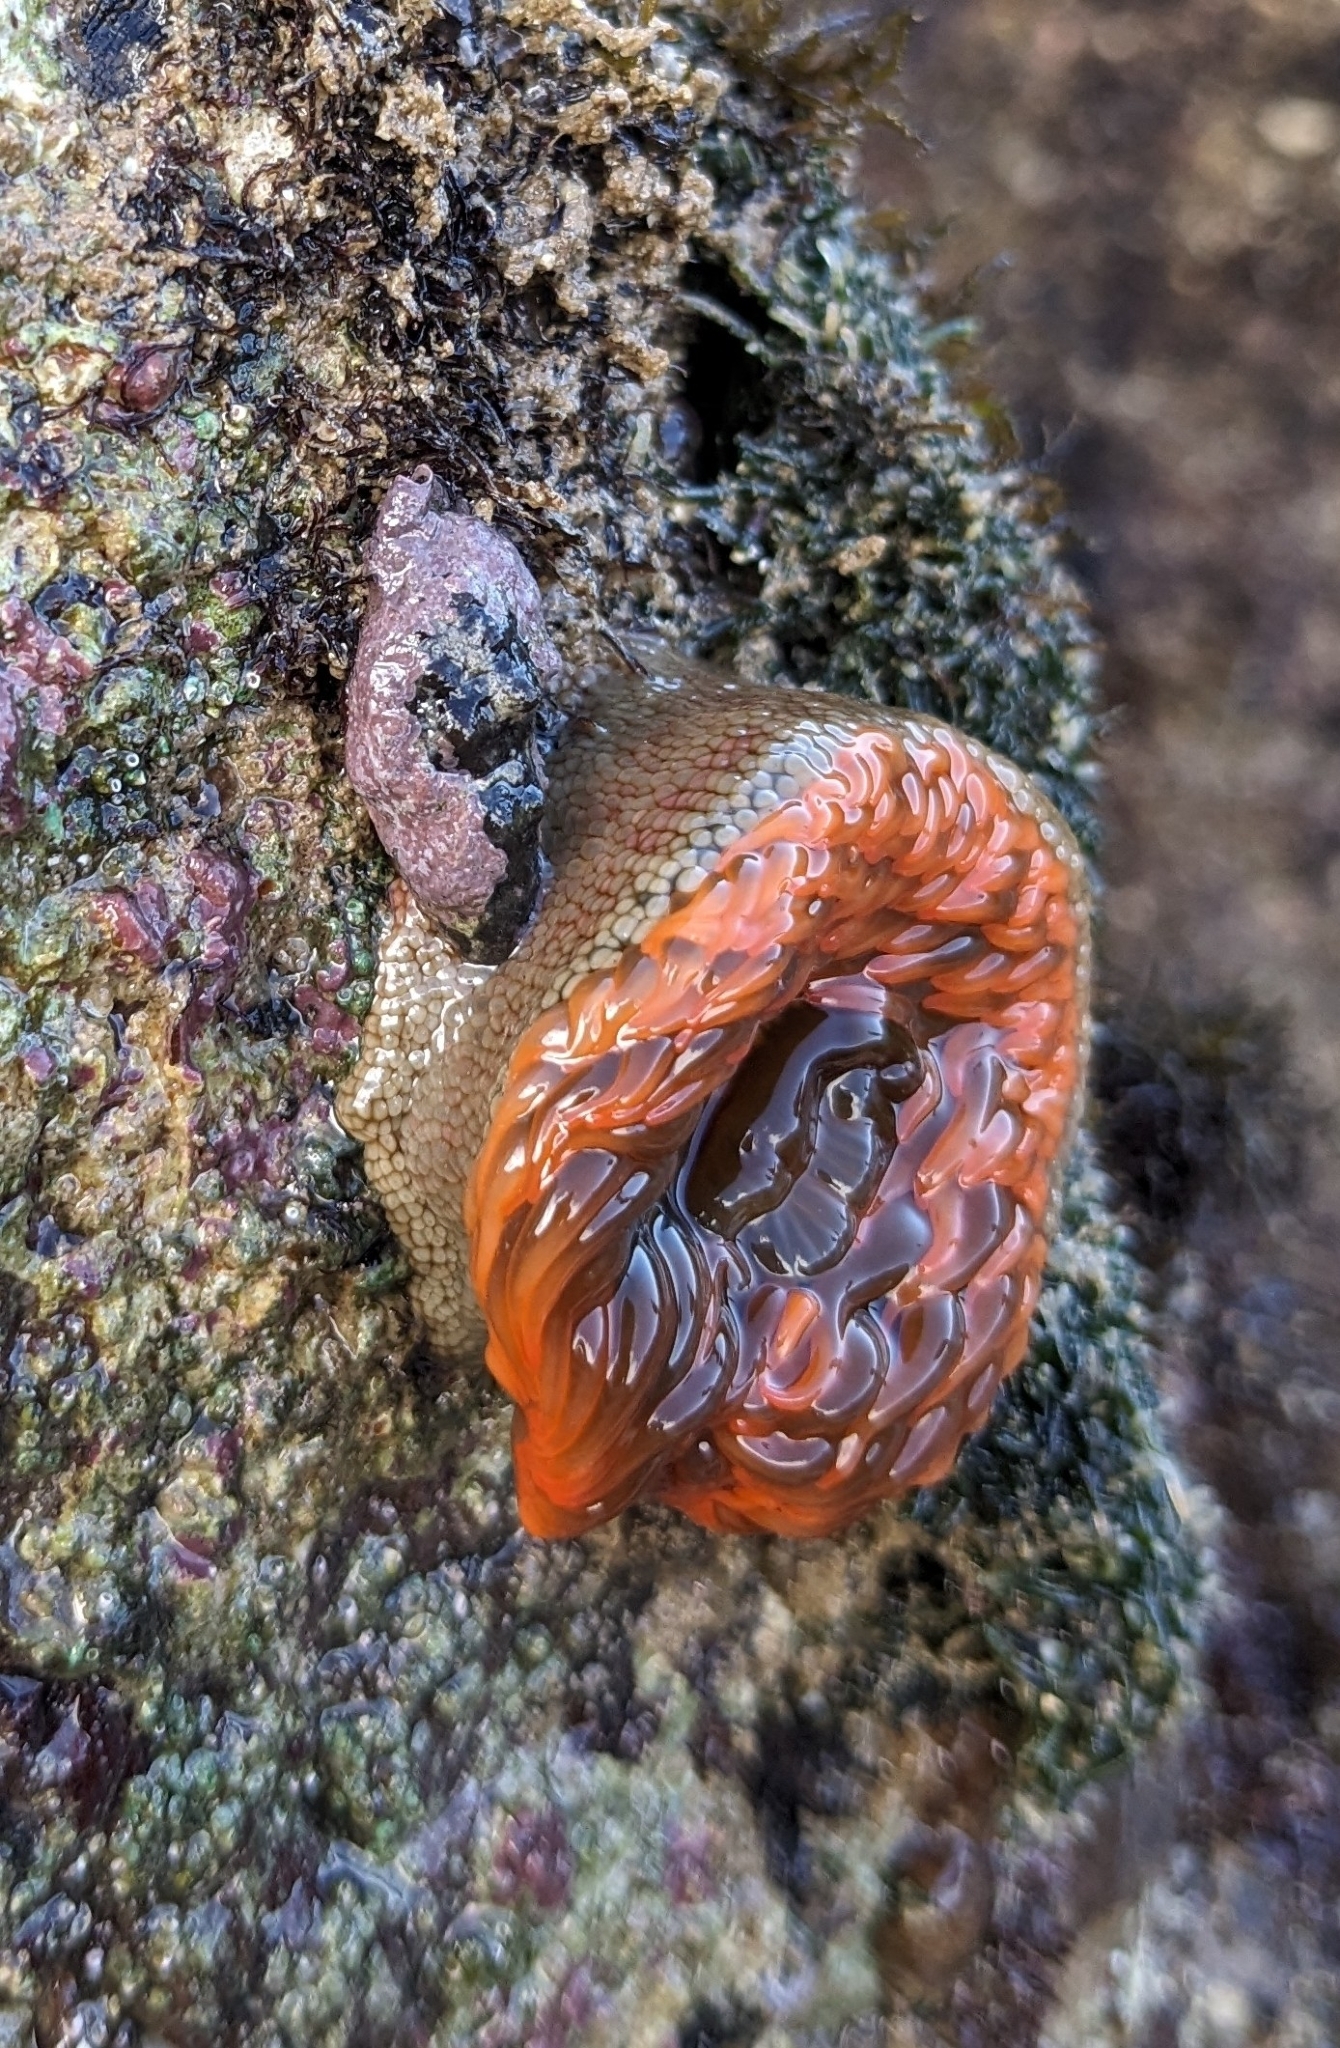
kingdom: Animalia
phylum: Cnidaria
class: Anthozoa
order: Actiniaria
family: Actiniidae
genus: Bunodosoma
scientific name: Bunodosoma californicum
